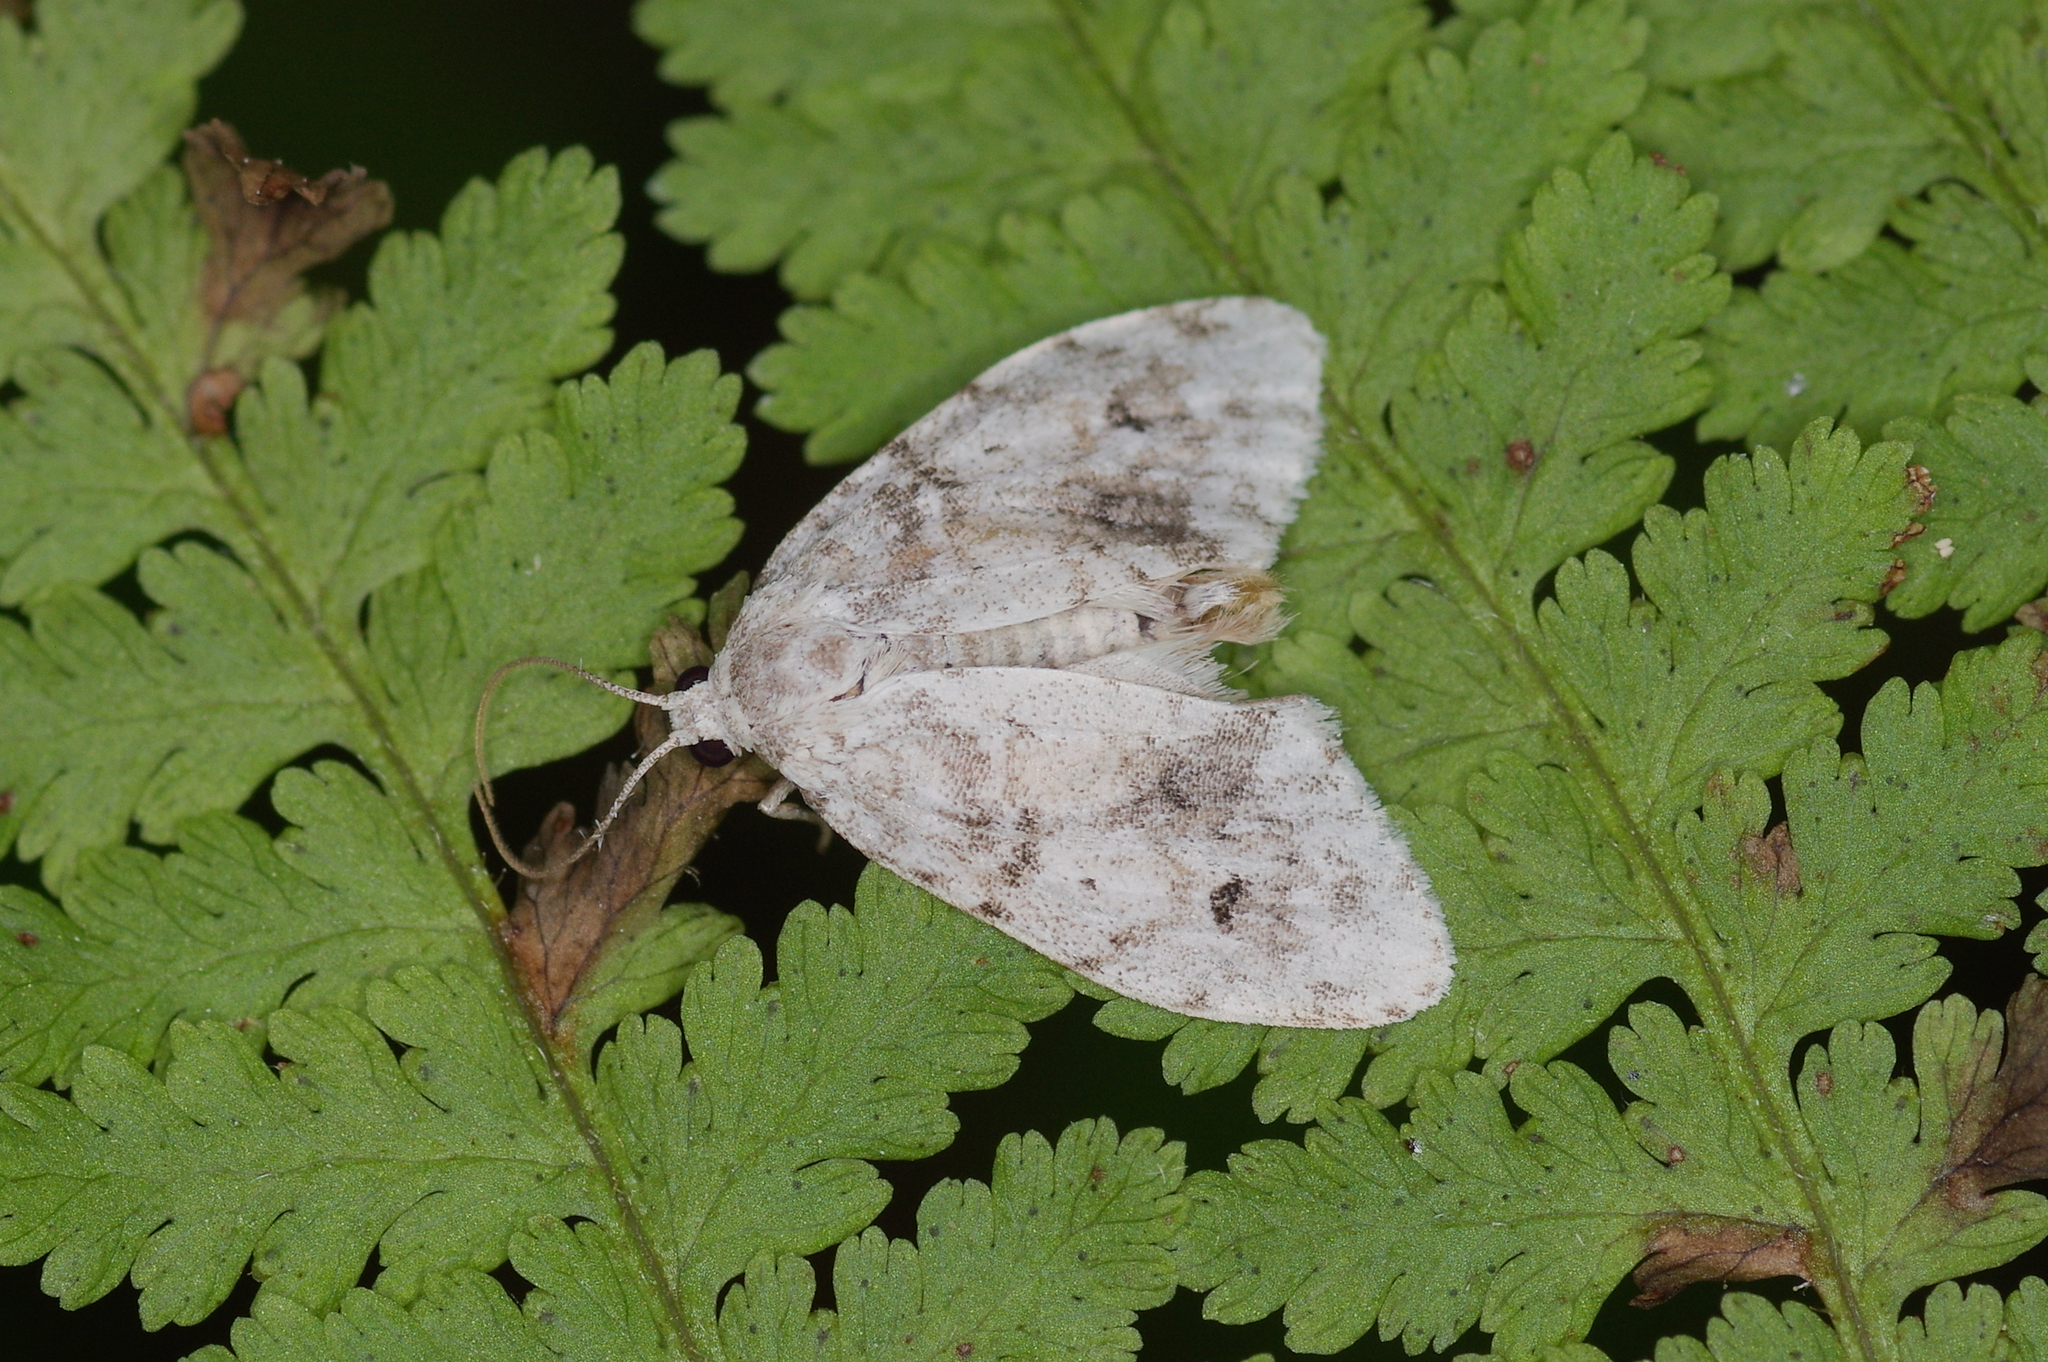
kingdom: Animalia
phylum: Arthropoda
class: Insecta
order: Lepidoptera
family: Erebidae
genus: Clemensia
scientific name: Clemensia albata
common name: Little white lichen moth
